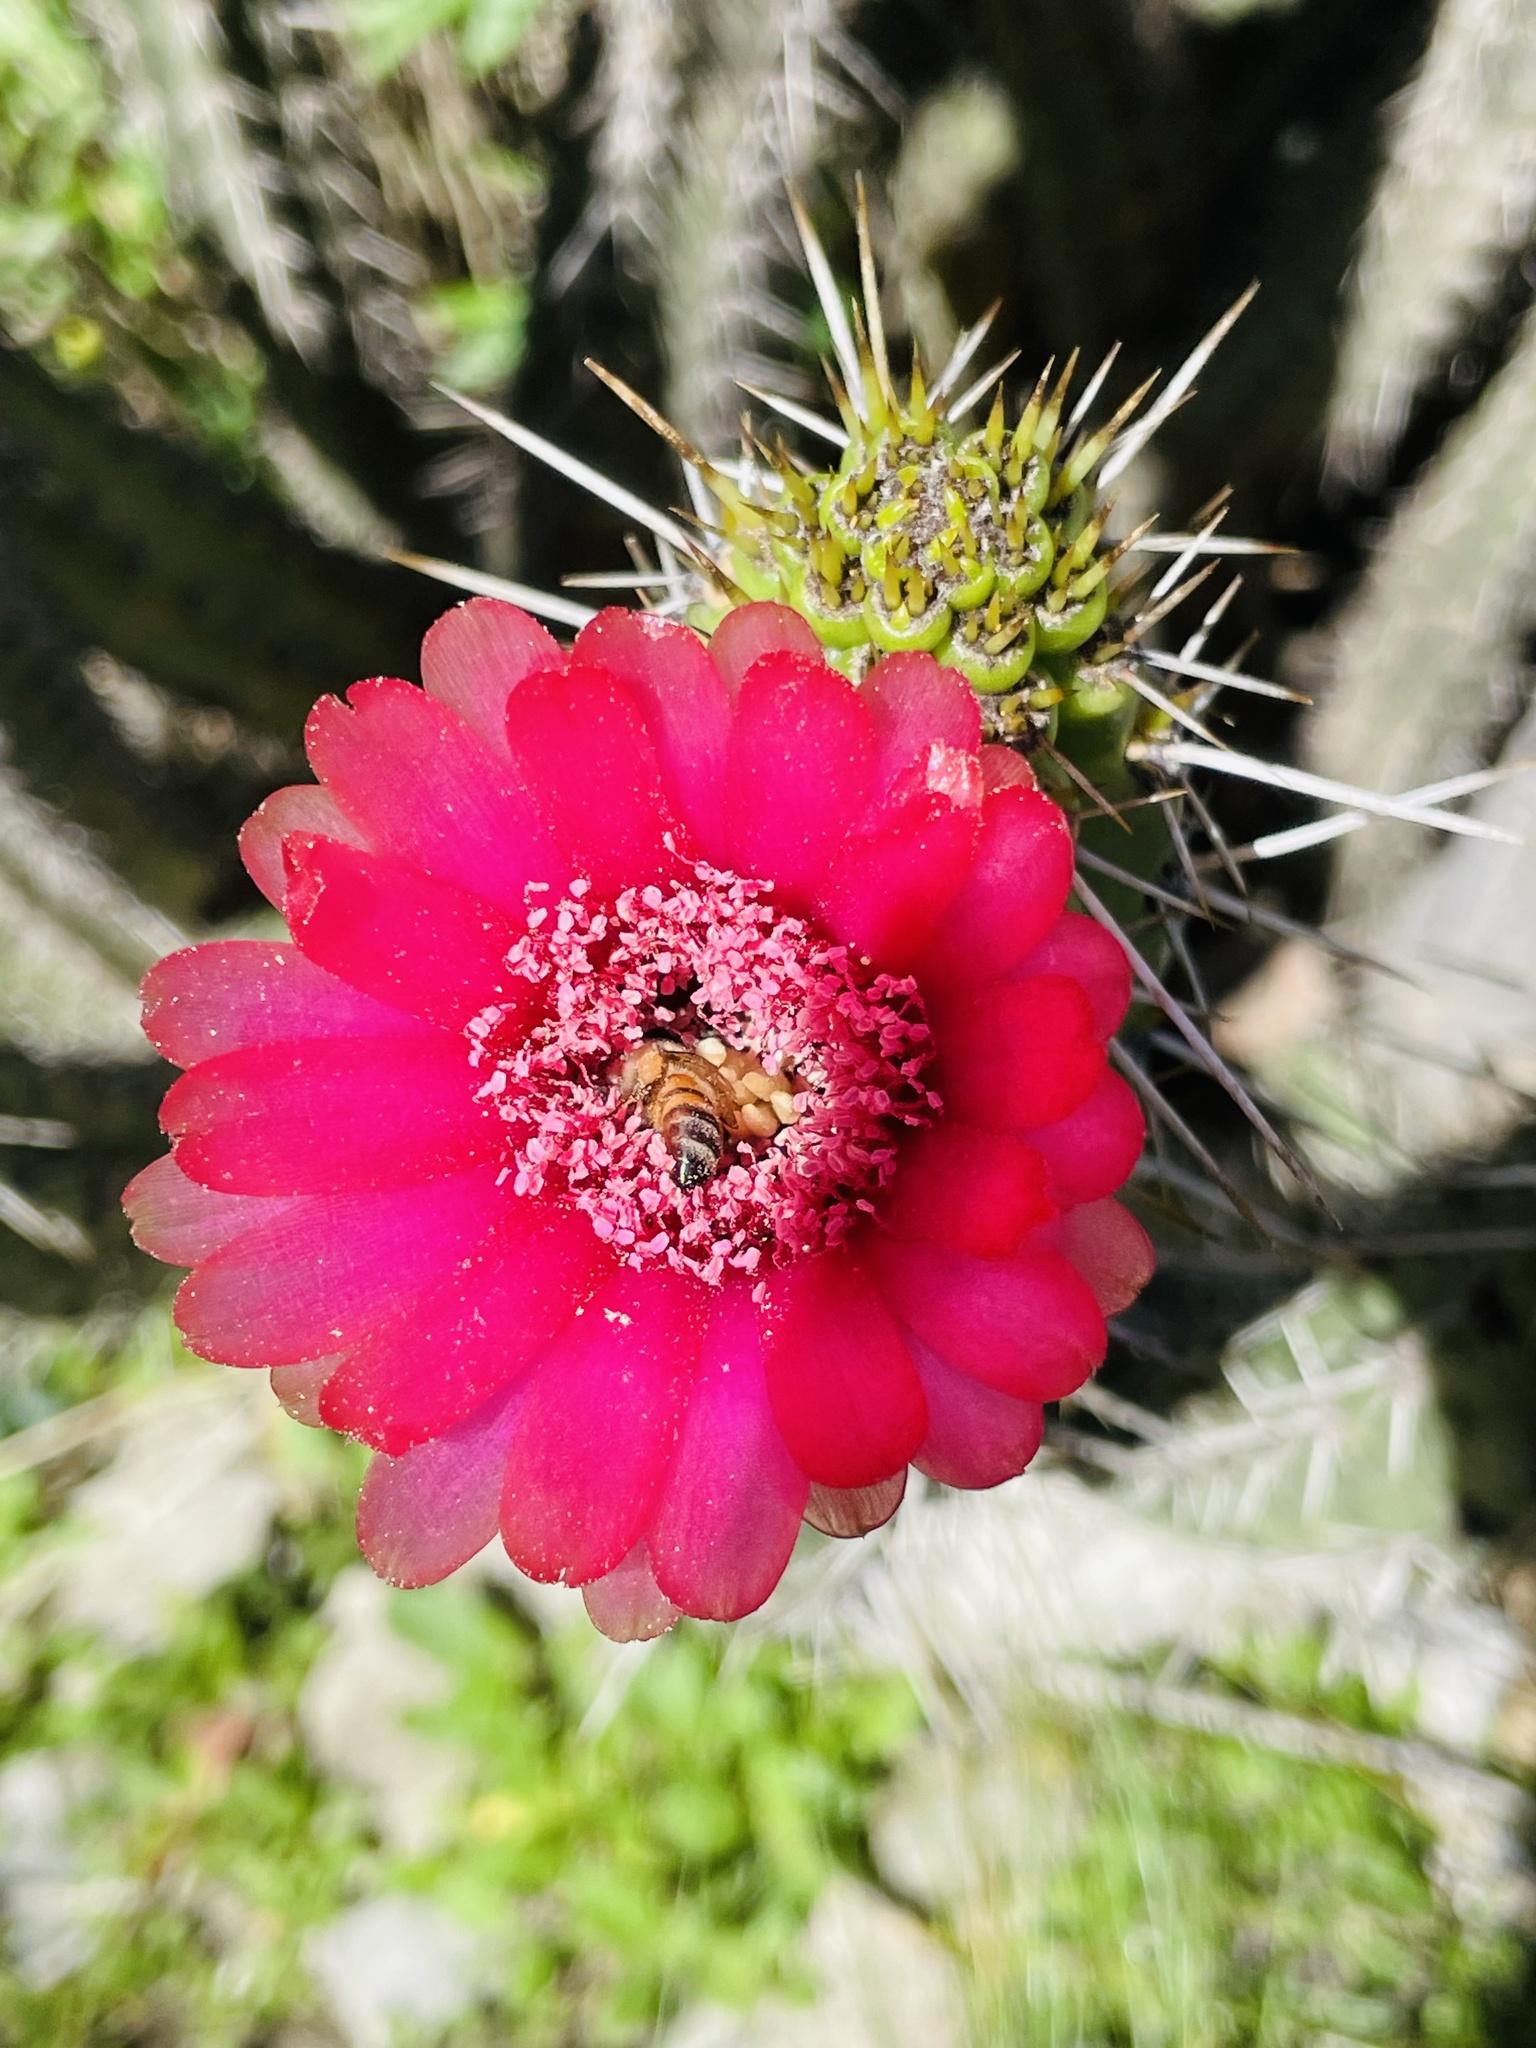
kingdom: Plantae
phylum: Tracheophyta
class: Magnoliopsida
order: Caryophyllales
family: Cactaceae
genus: Corryocactus
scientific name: Corryocactus melanotrichus
